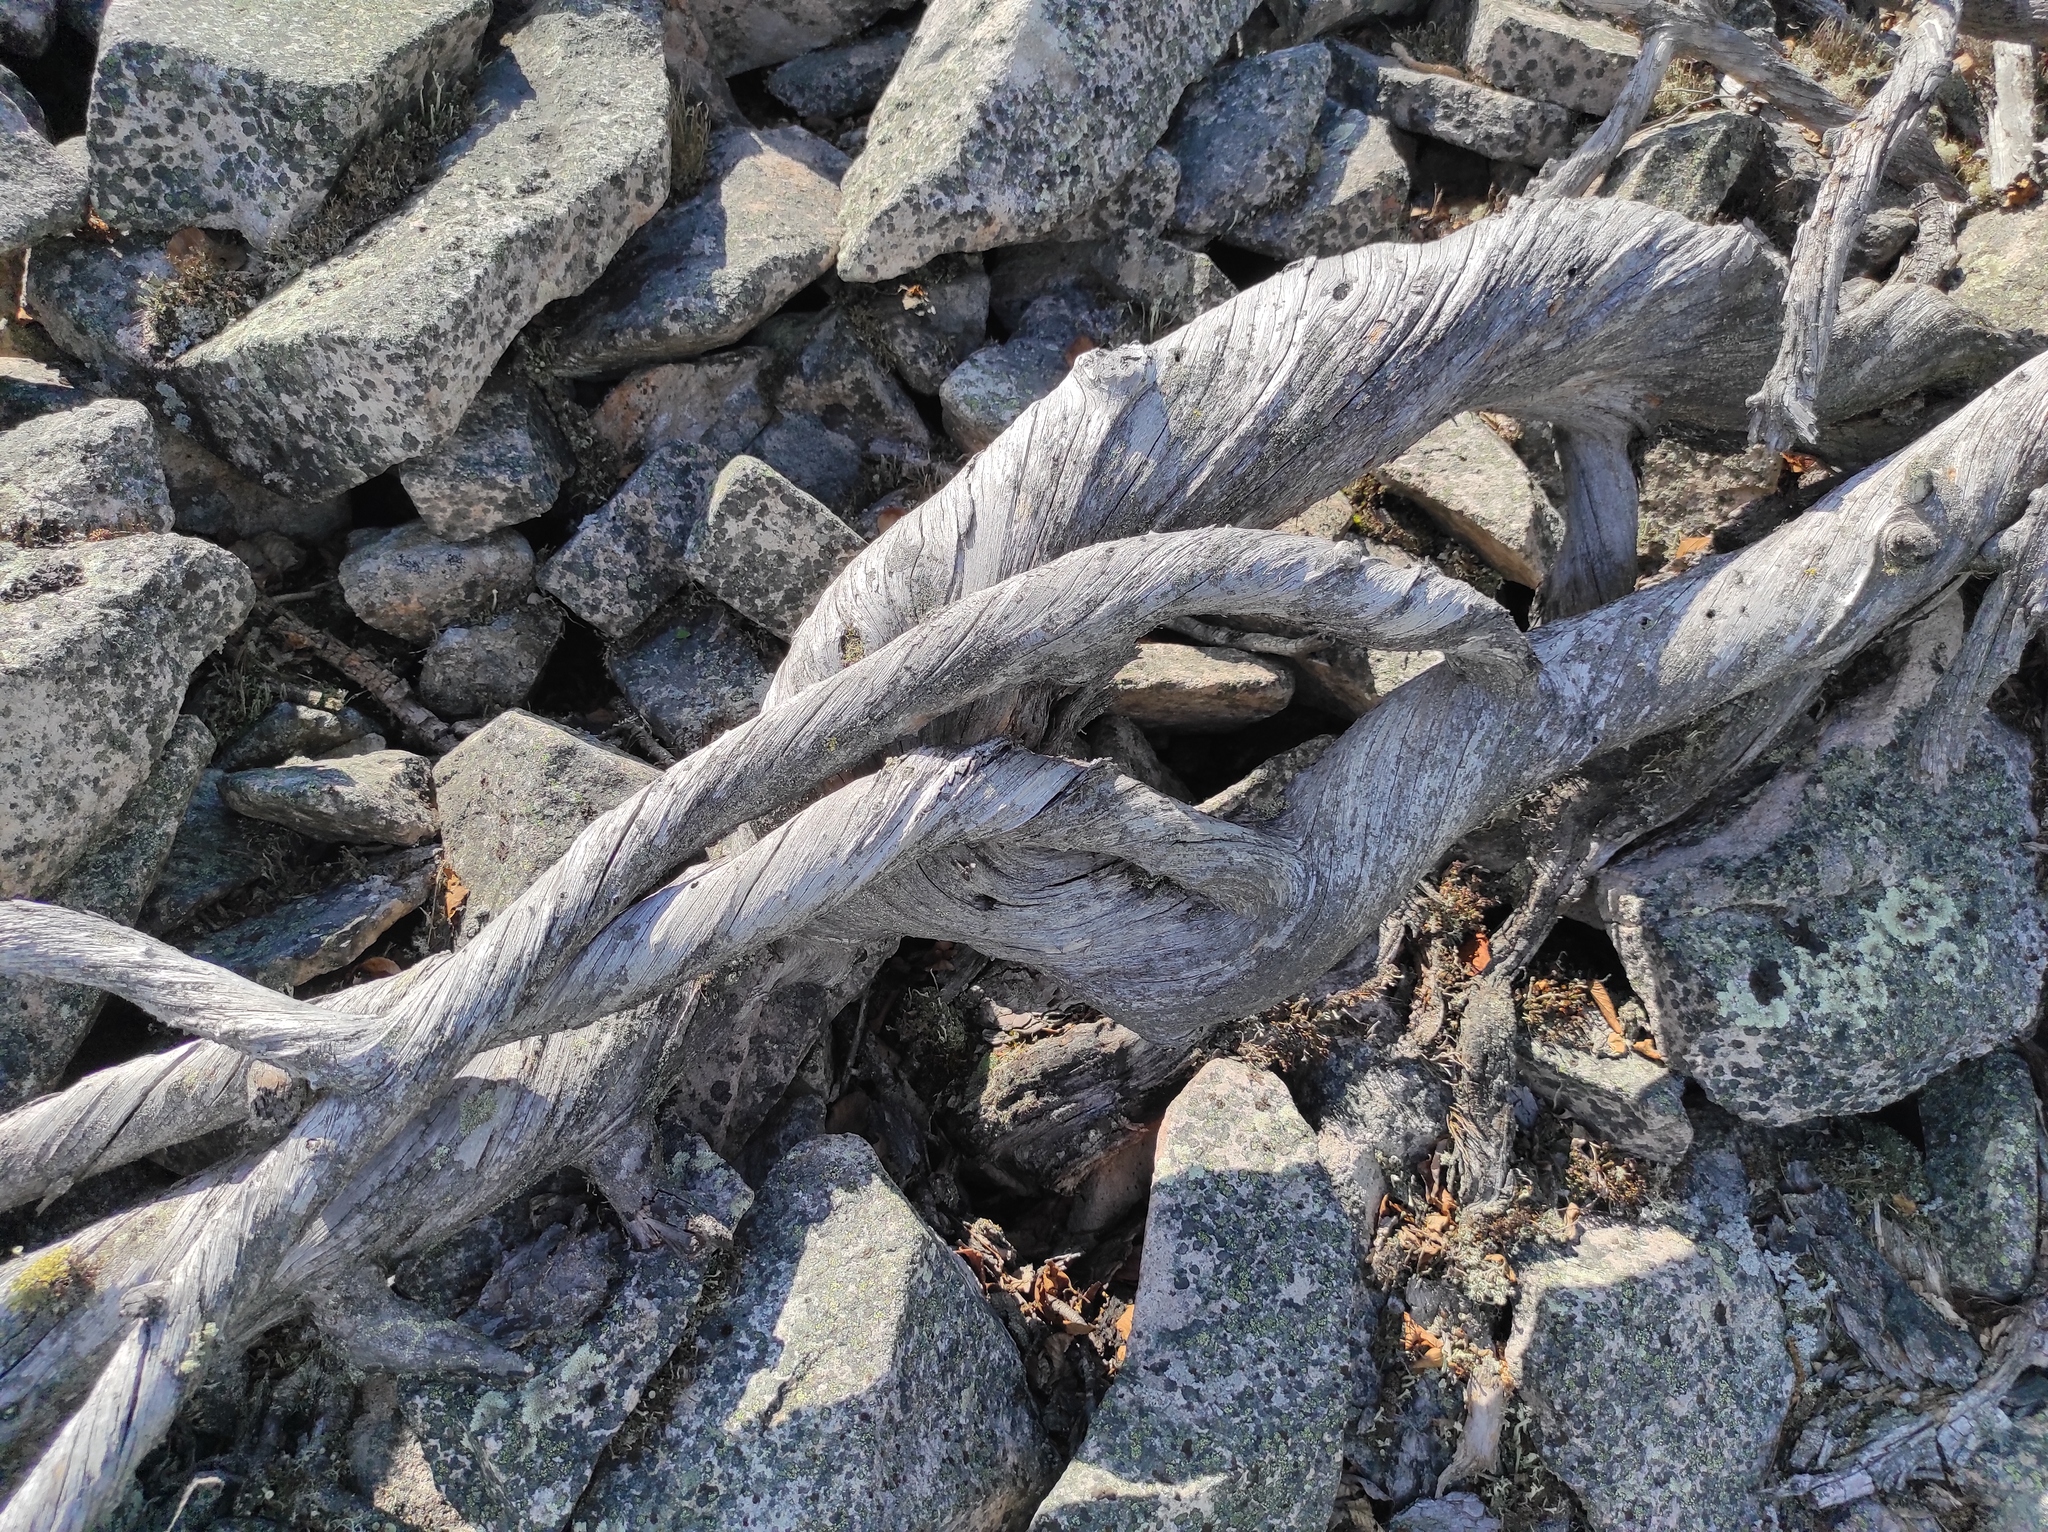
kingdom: Plantae
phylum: Tracheophyta
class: Pinopsida
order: Pinales
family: Pinaceae
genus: Pinus
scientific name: Pinus pumila
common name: Dwarf siberian pine
